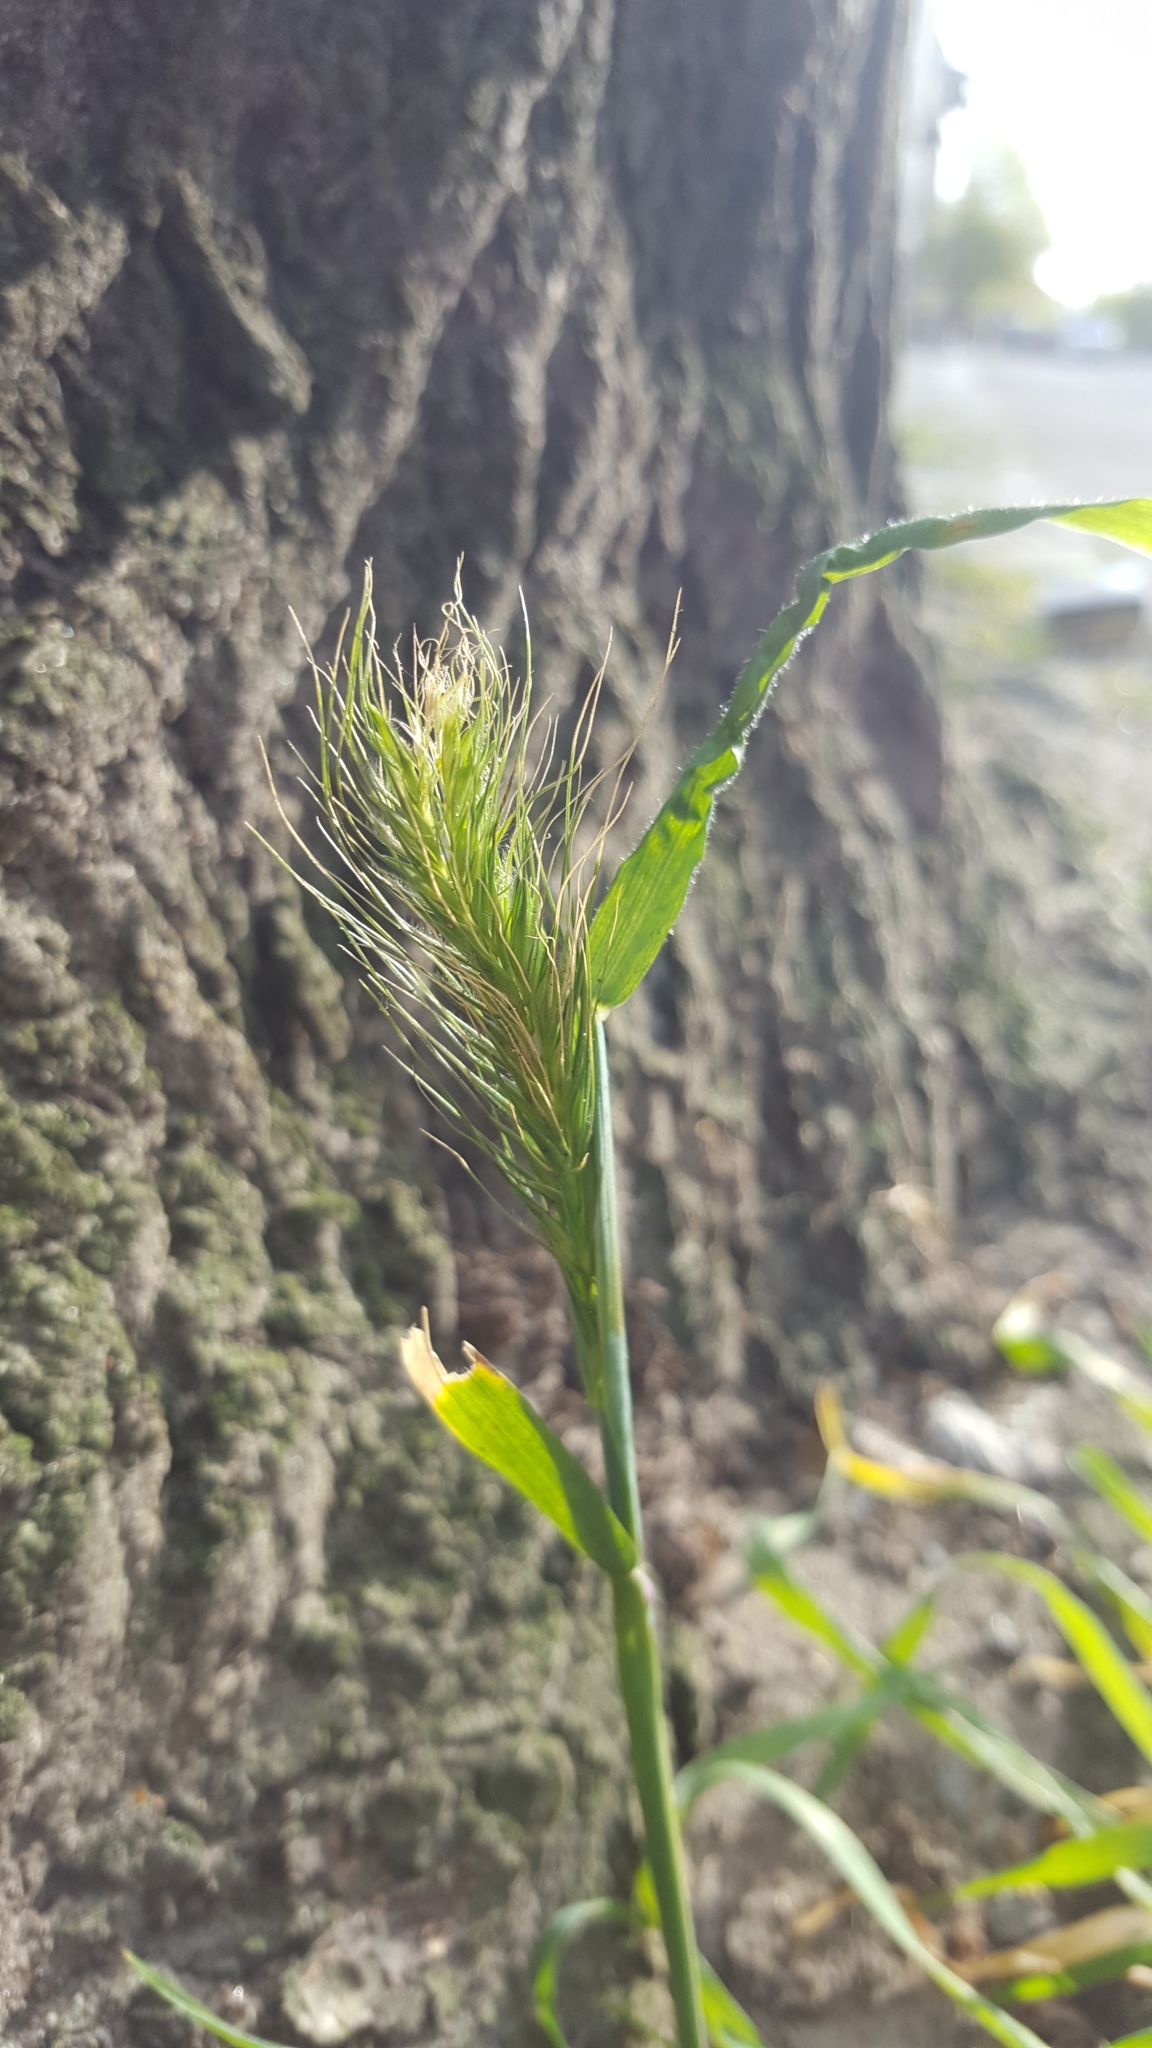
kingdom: Plantae
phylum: Tracheophyta
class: Liliopsida
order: Poales
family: Poaceae
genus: Hordeum
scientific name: Hordeum murinum
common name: Wall barley
